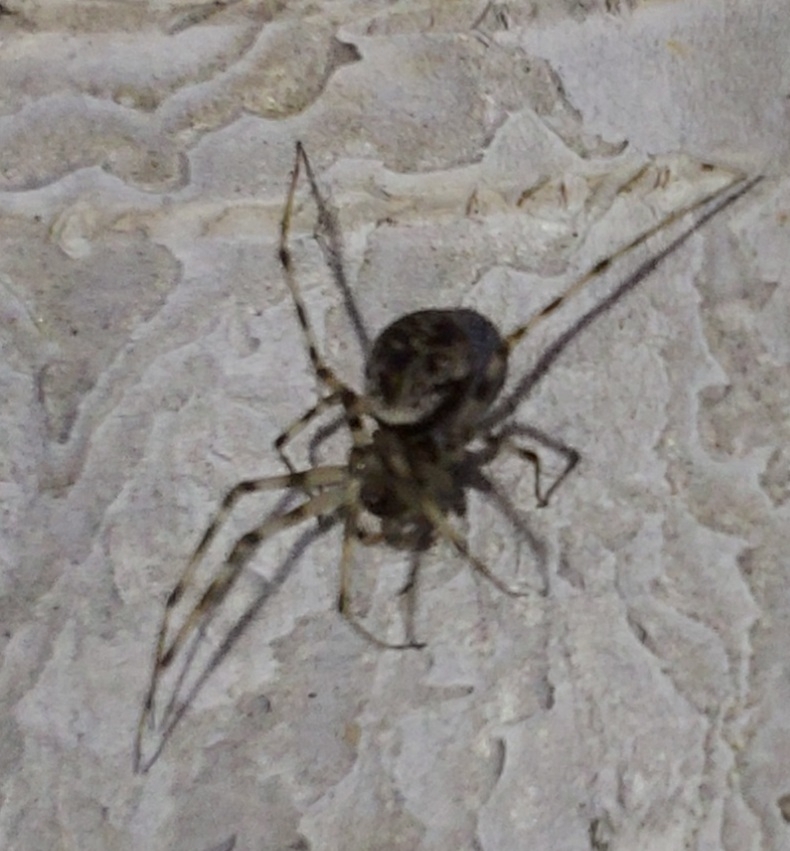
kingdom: Animalia
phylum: Arthropoda
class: Arachnida
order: Araneae
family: Linyphiidae
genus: Drapetisca
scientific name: Drapetisca socialis
